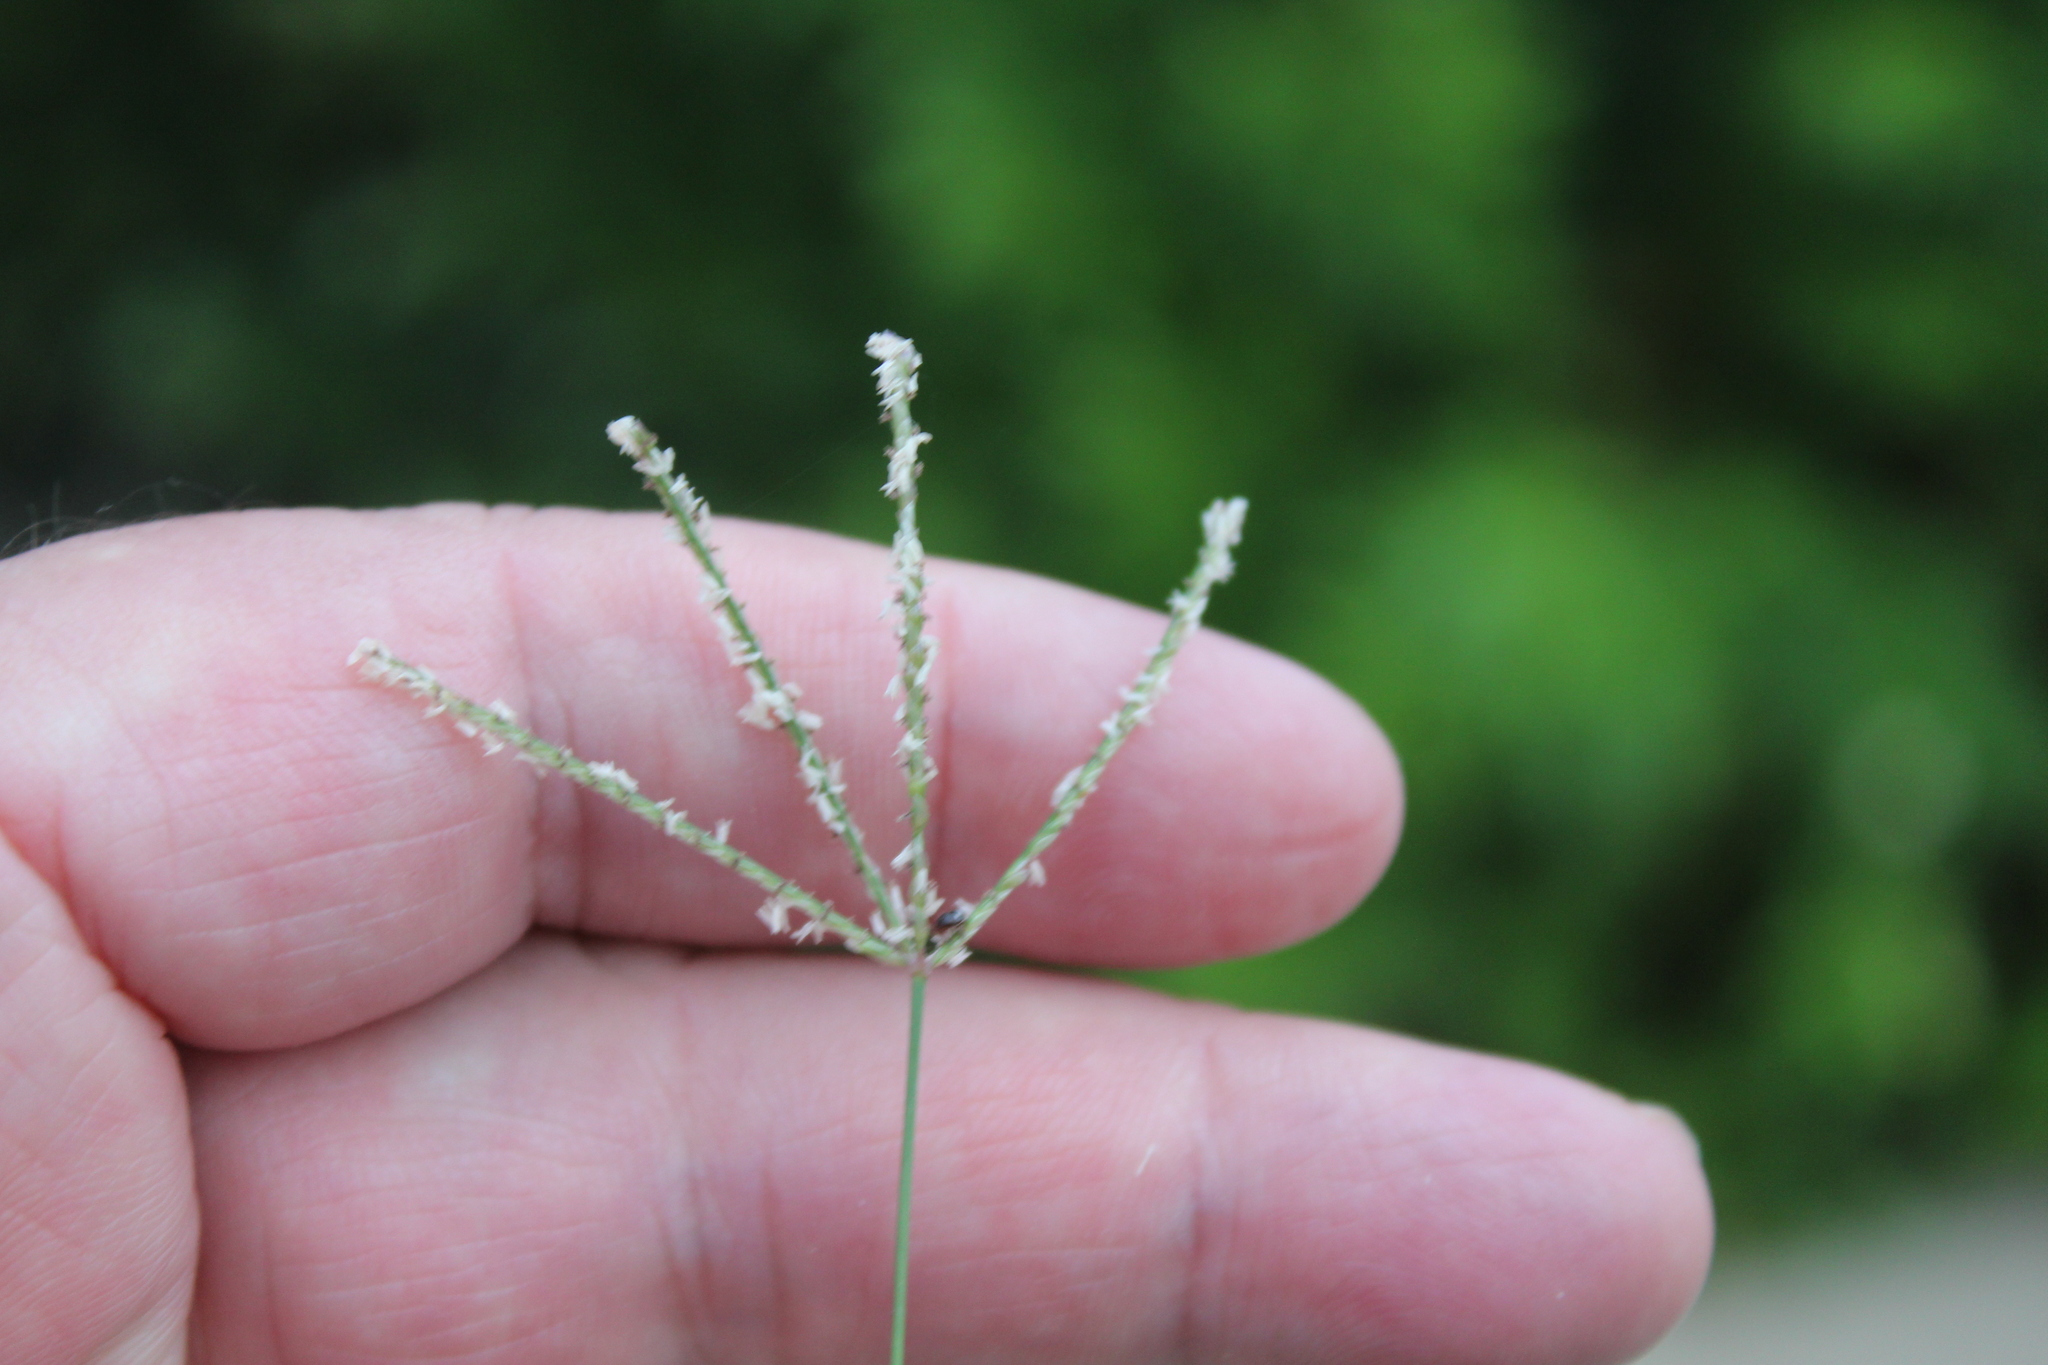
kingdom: Plantae
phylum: Tracheophyta
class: Liliopsida
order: Poales
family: Poaceae
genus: Cynodon
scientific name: Cynodon dactylon
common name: Bermuda grass
